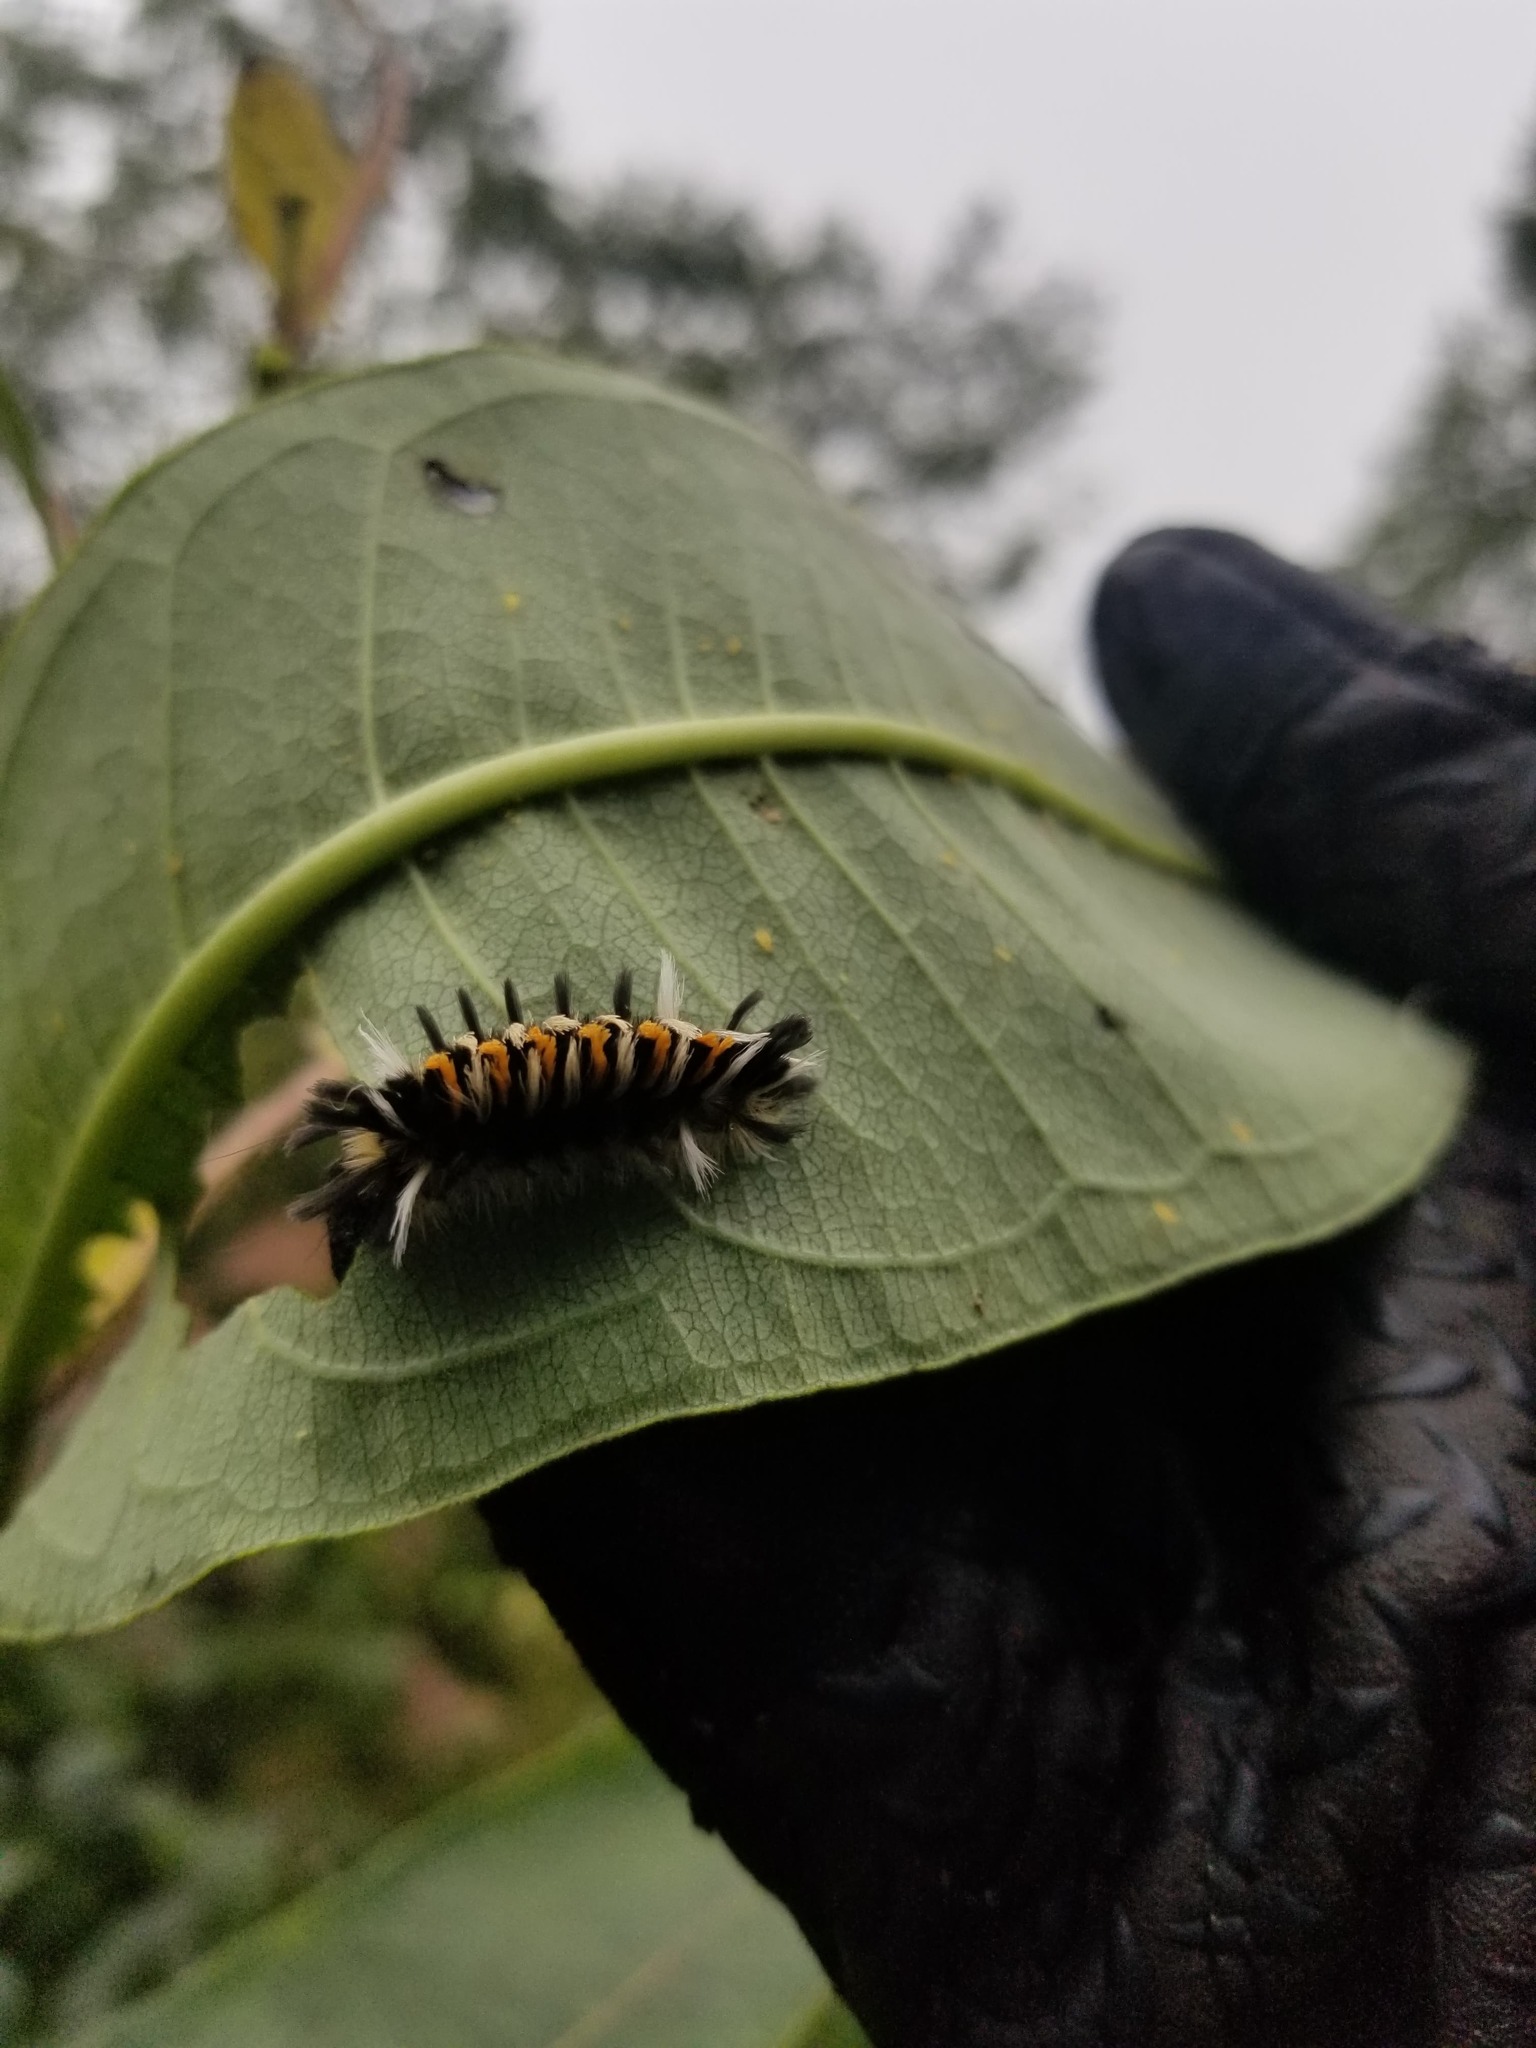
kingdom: Animalia
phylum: Arthropoda
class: Insecta
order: Lepidoptera
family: Erebidae
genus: Euchaetes
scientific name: Euchaetes egle
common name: Milkweed tussock moth
